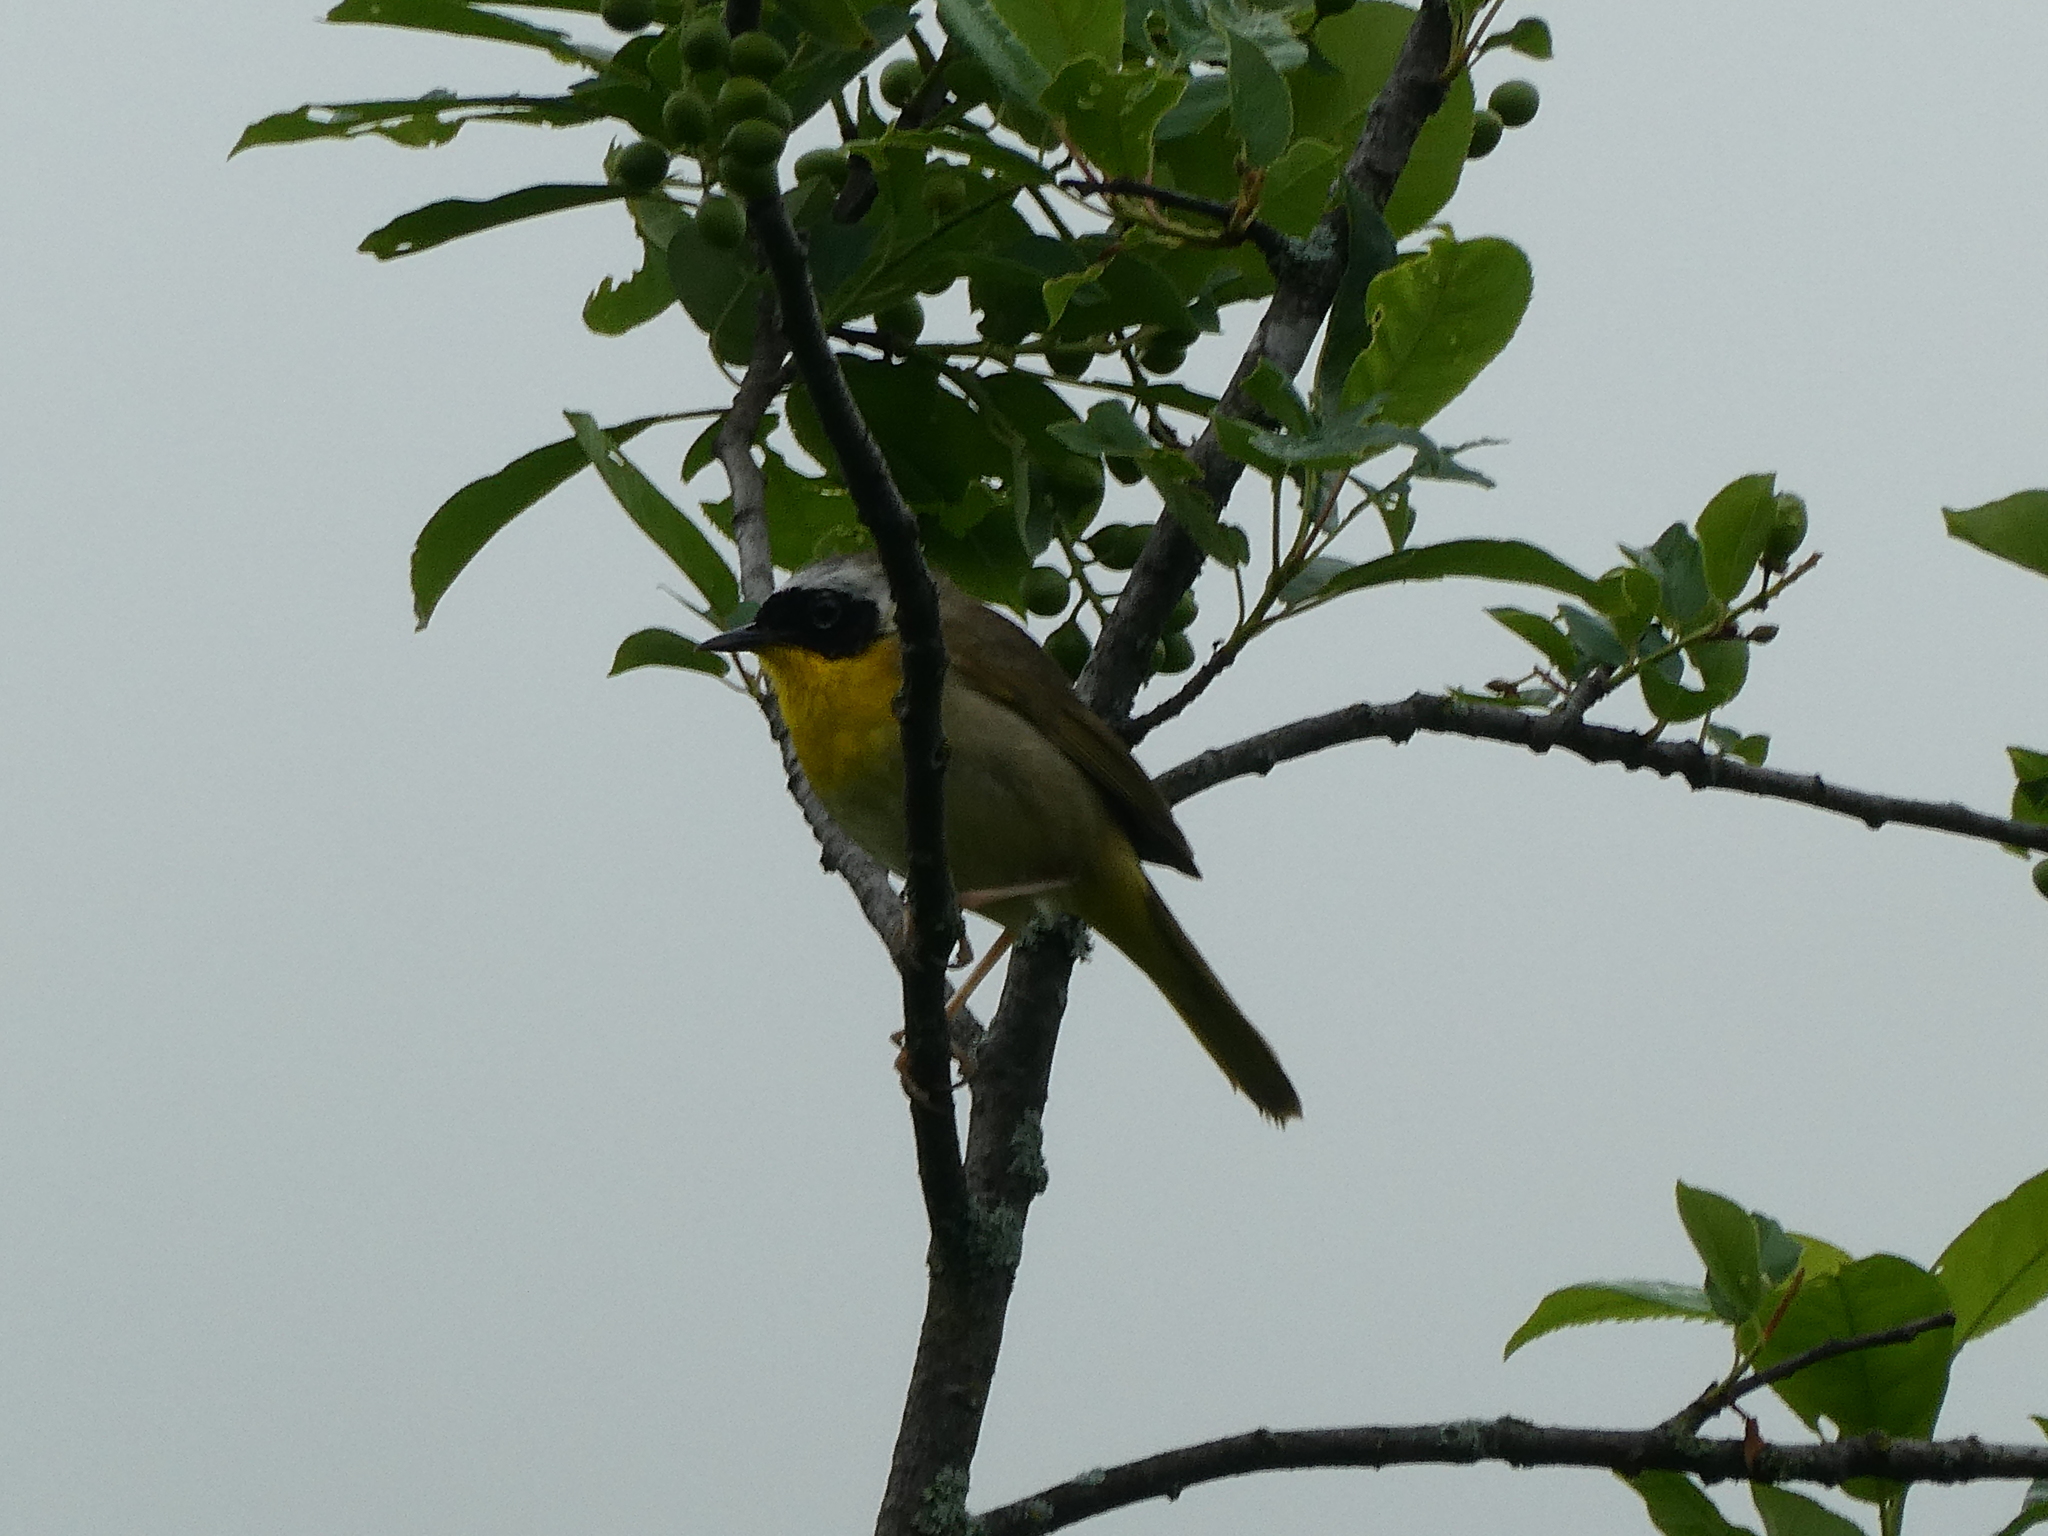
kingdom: Animalia
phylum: Chordata
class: Aves
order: Passeriformes
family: Parulidae
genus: Geothlypis
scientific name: Geothlypis trichas
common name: Common yellowthroat
